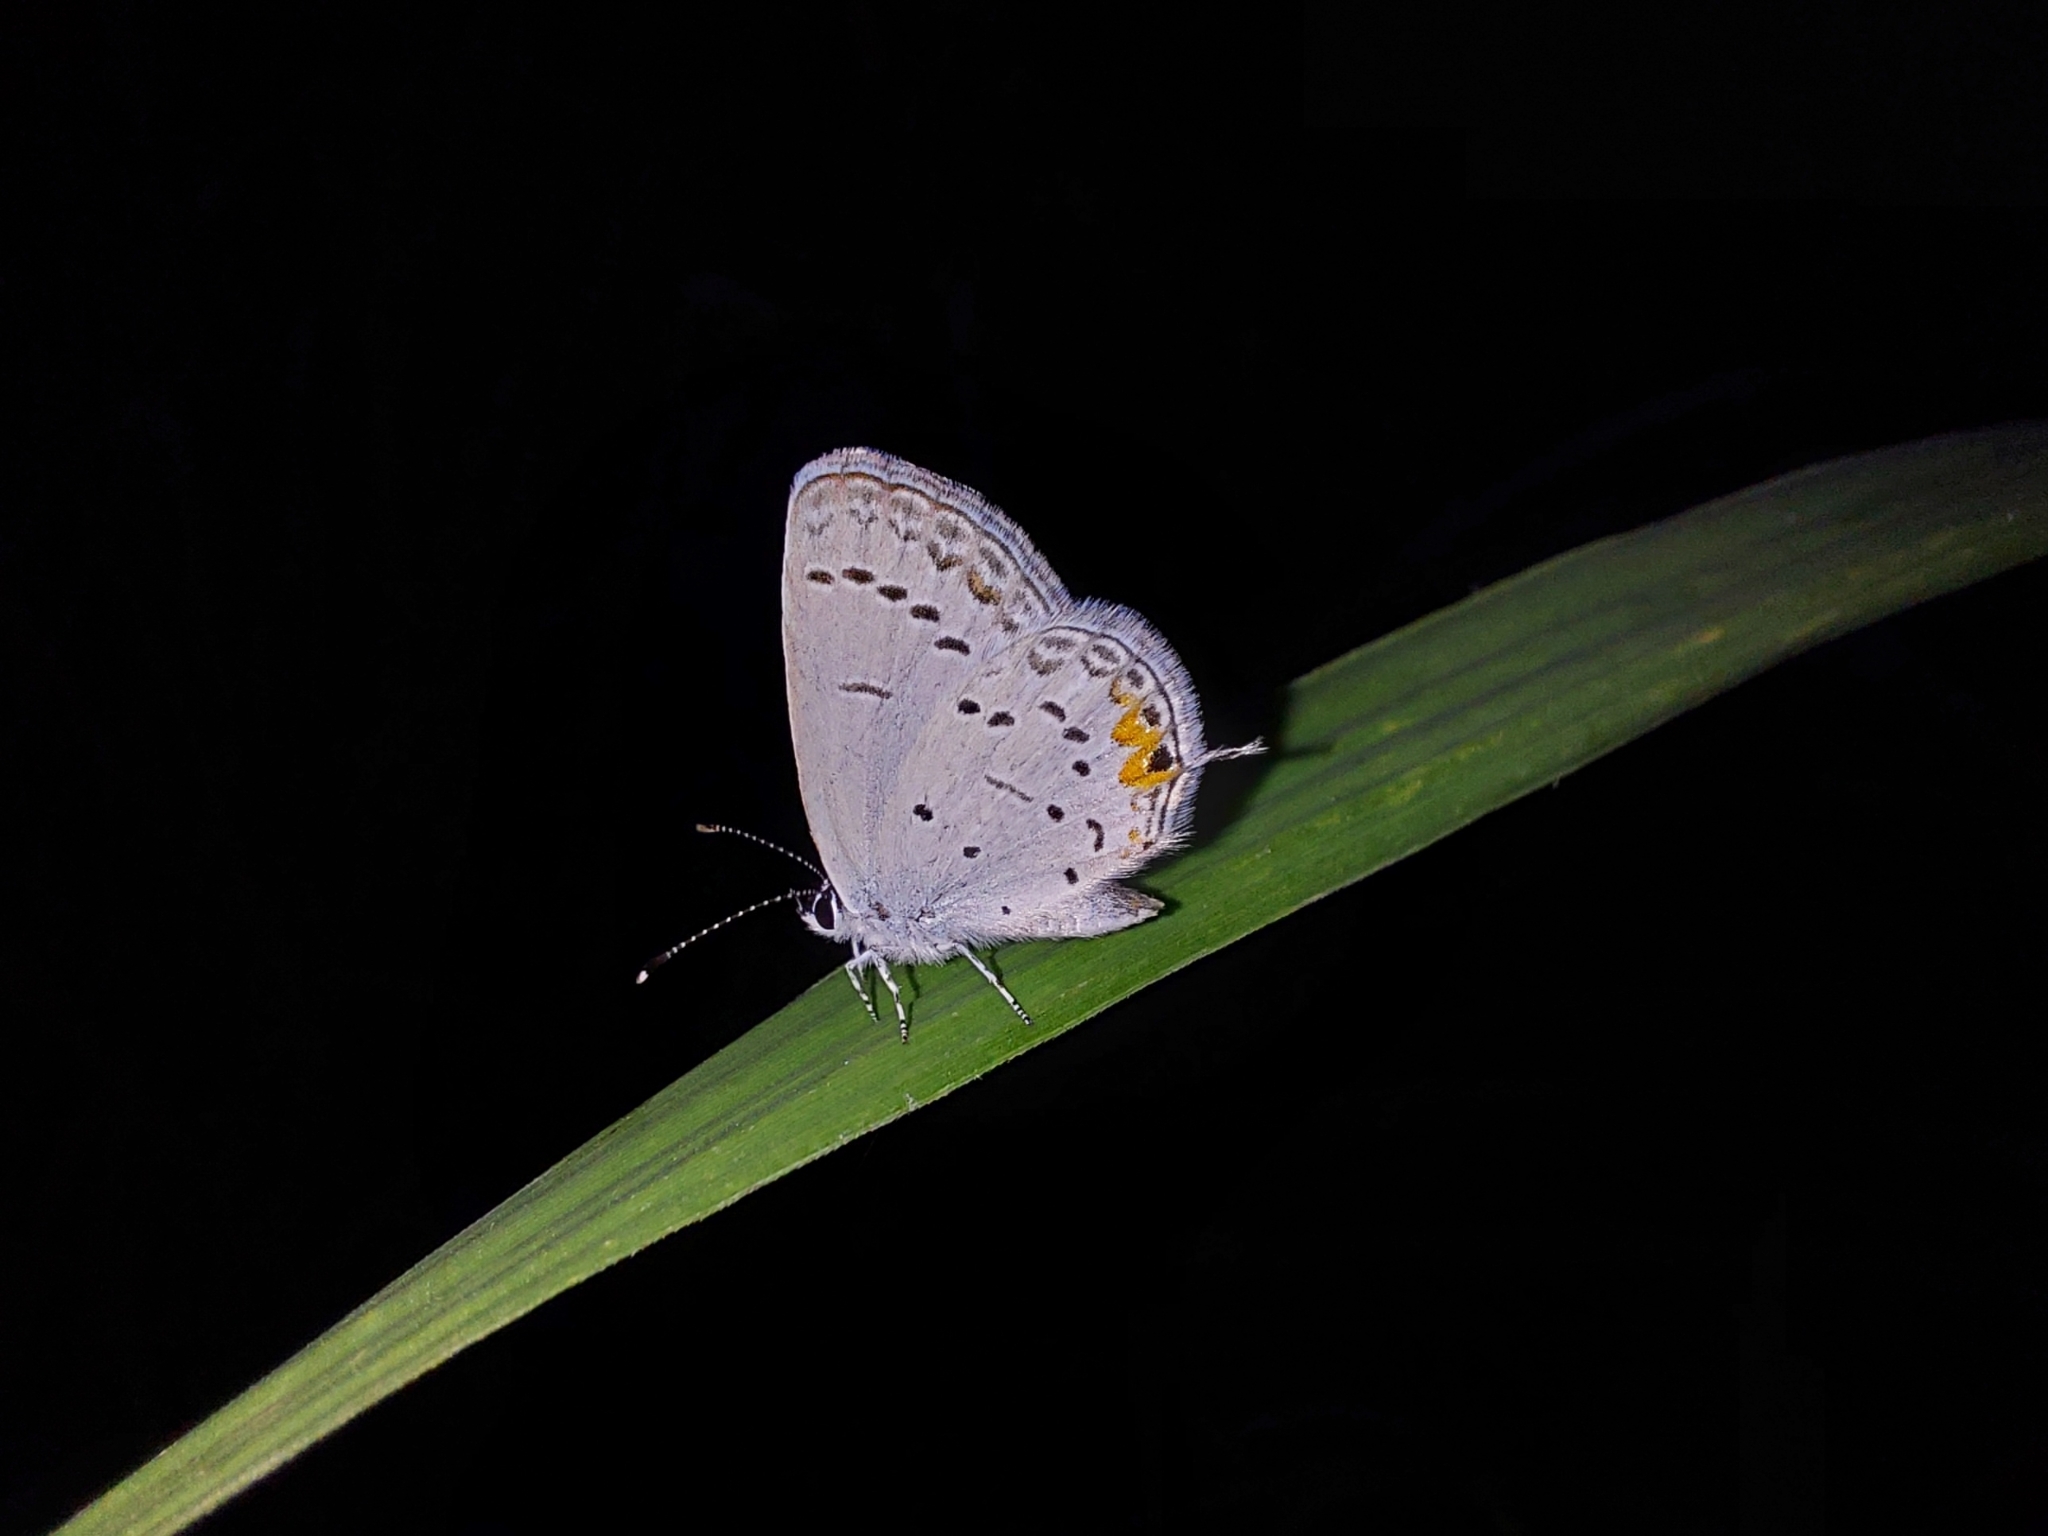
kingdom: Animalia
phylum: Arthropoda
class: Insecta
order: Lepidoptera
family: Lycaenidae
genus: Elkalyce
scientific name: Elkalyce comyntas
